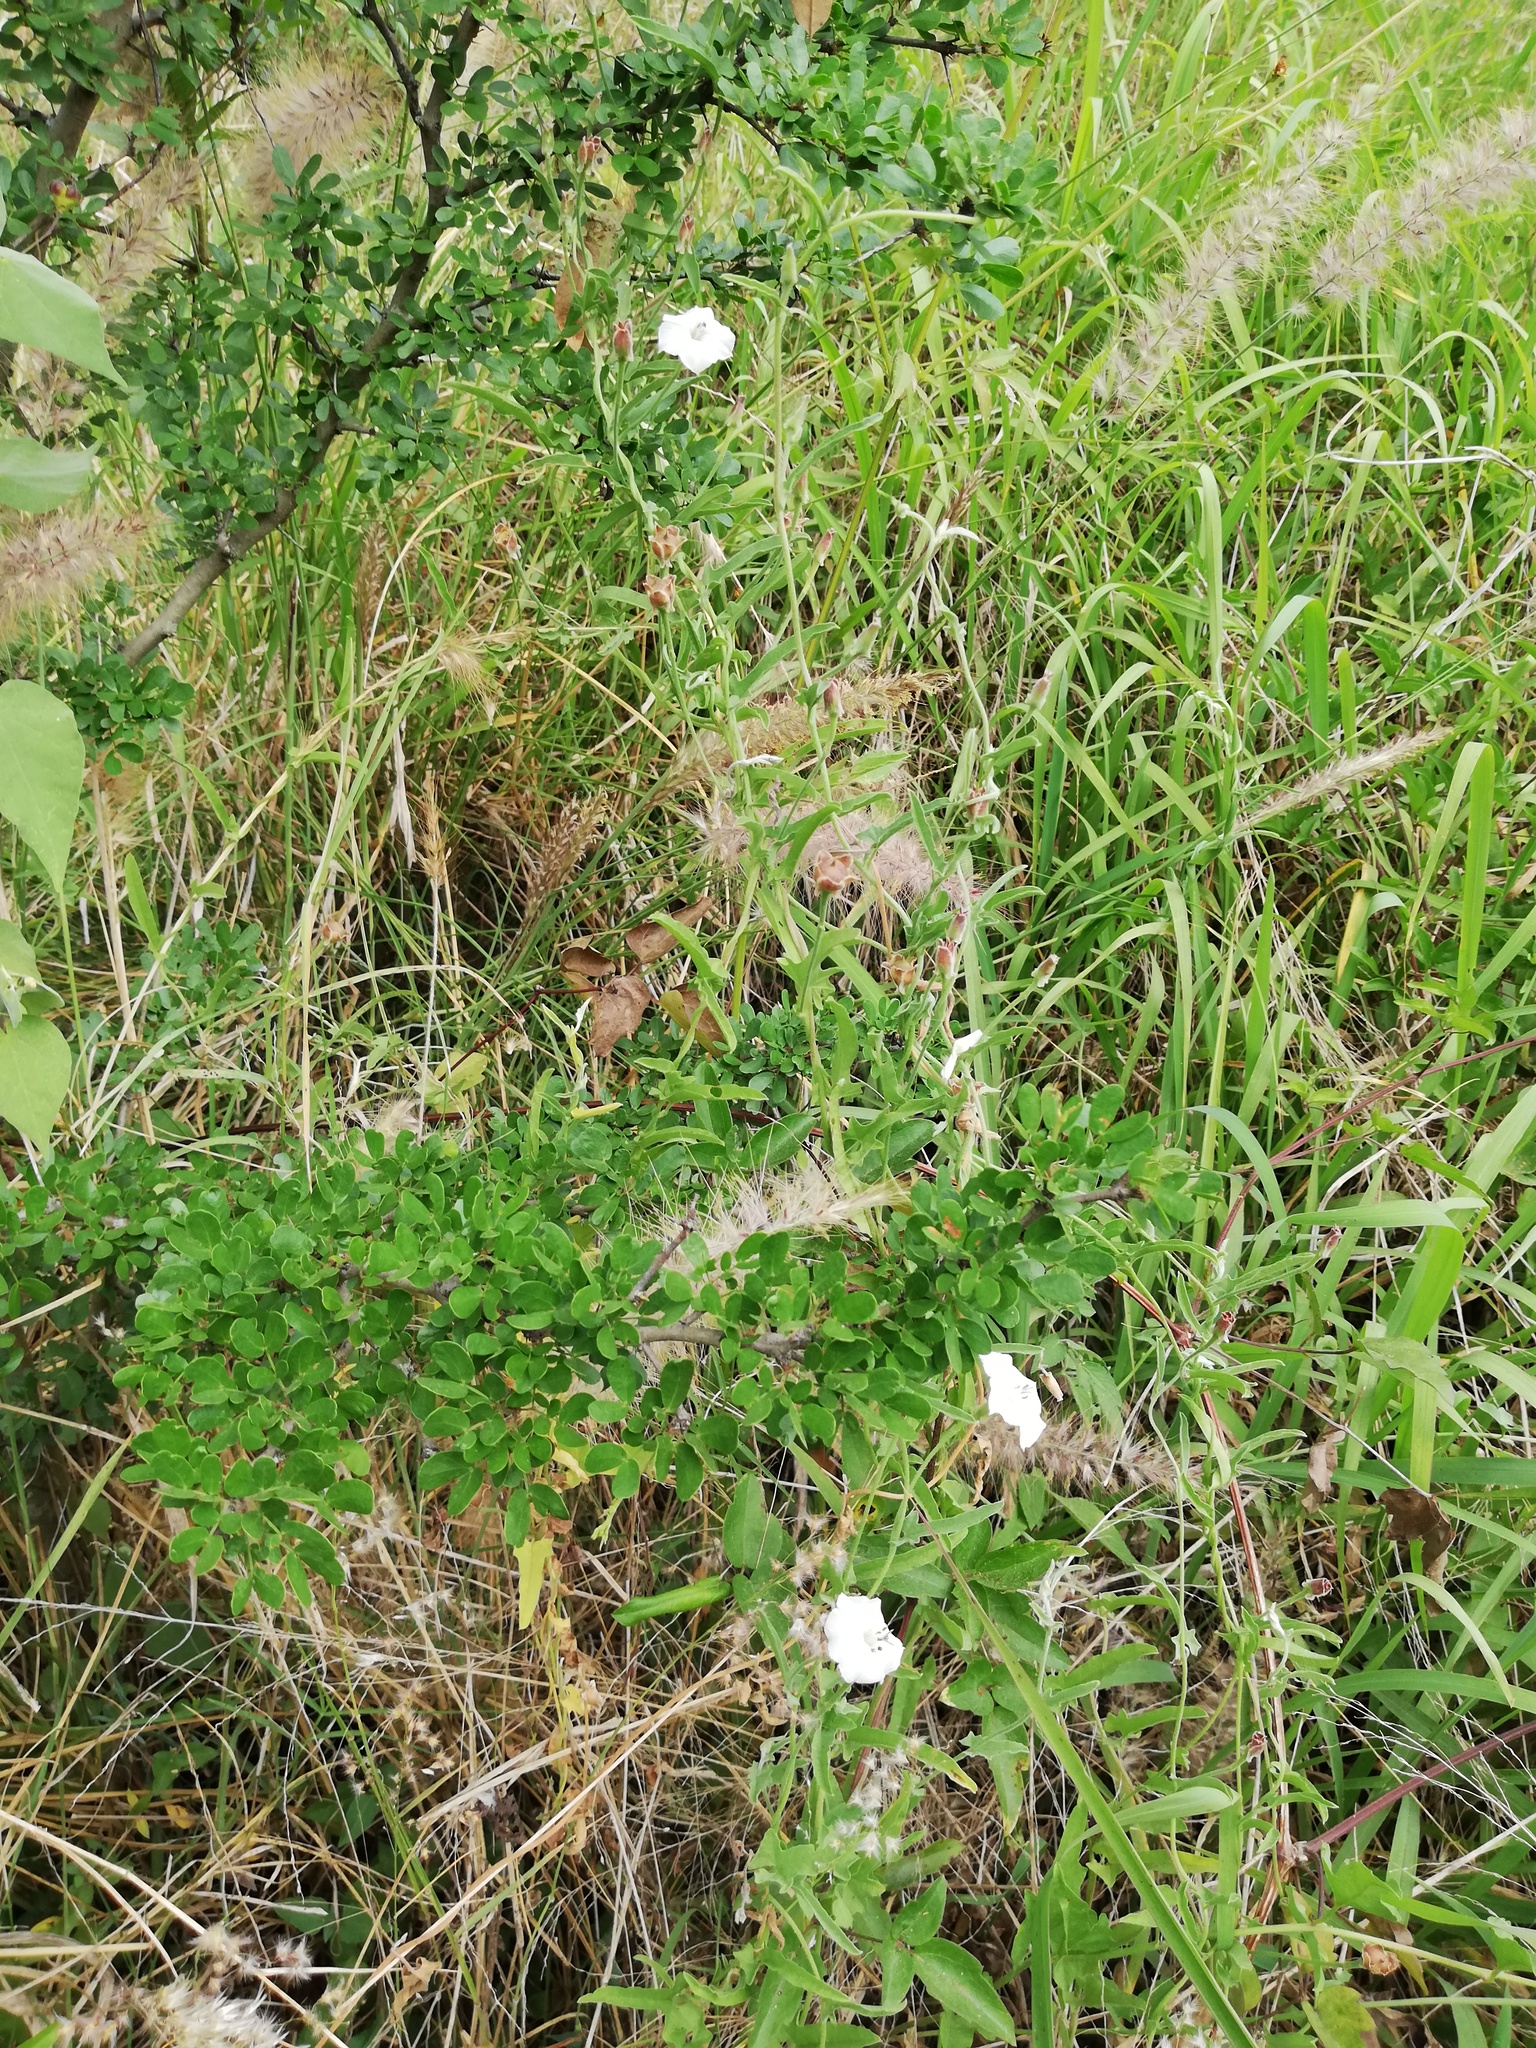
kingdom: Plantae
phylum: Tracheophyta
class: Magnoliopsida
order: Solanales
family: Convolvulaceae
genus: Convolvulus
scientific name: Convolvulus equitans
